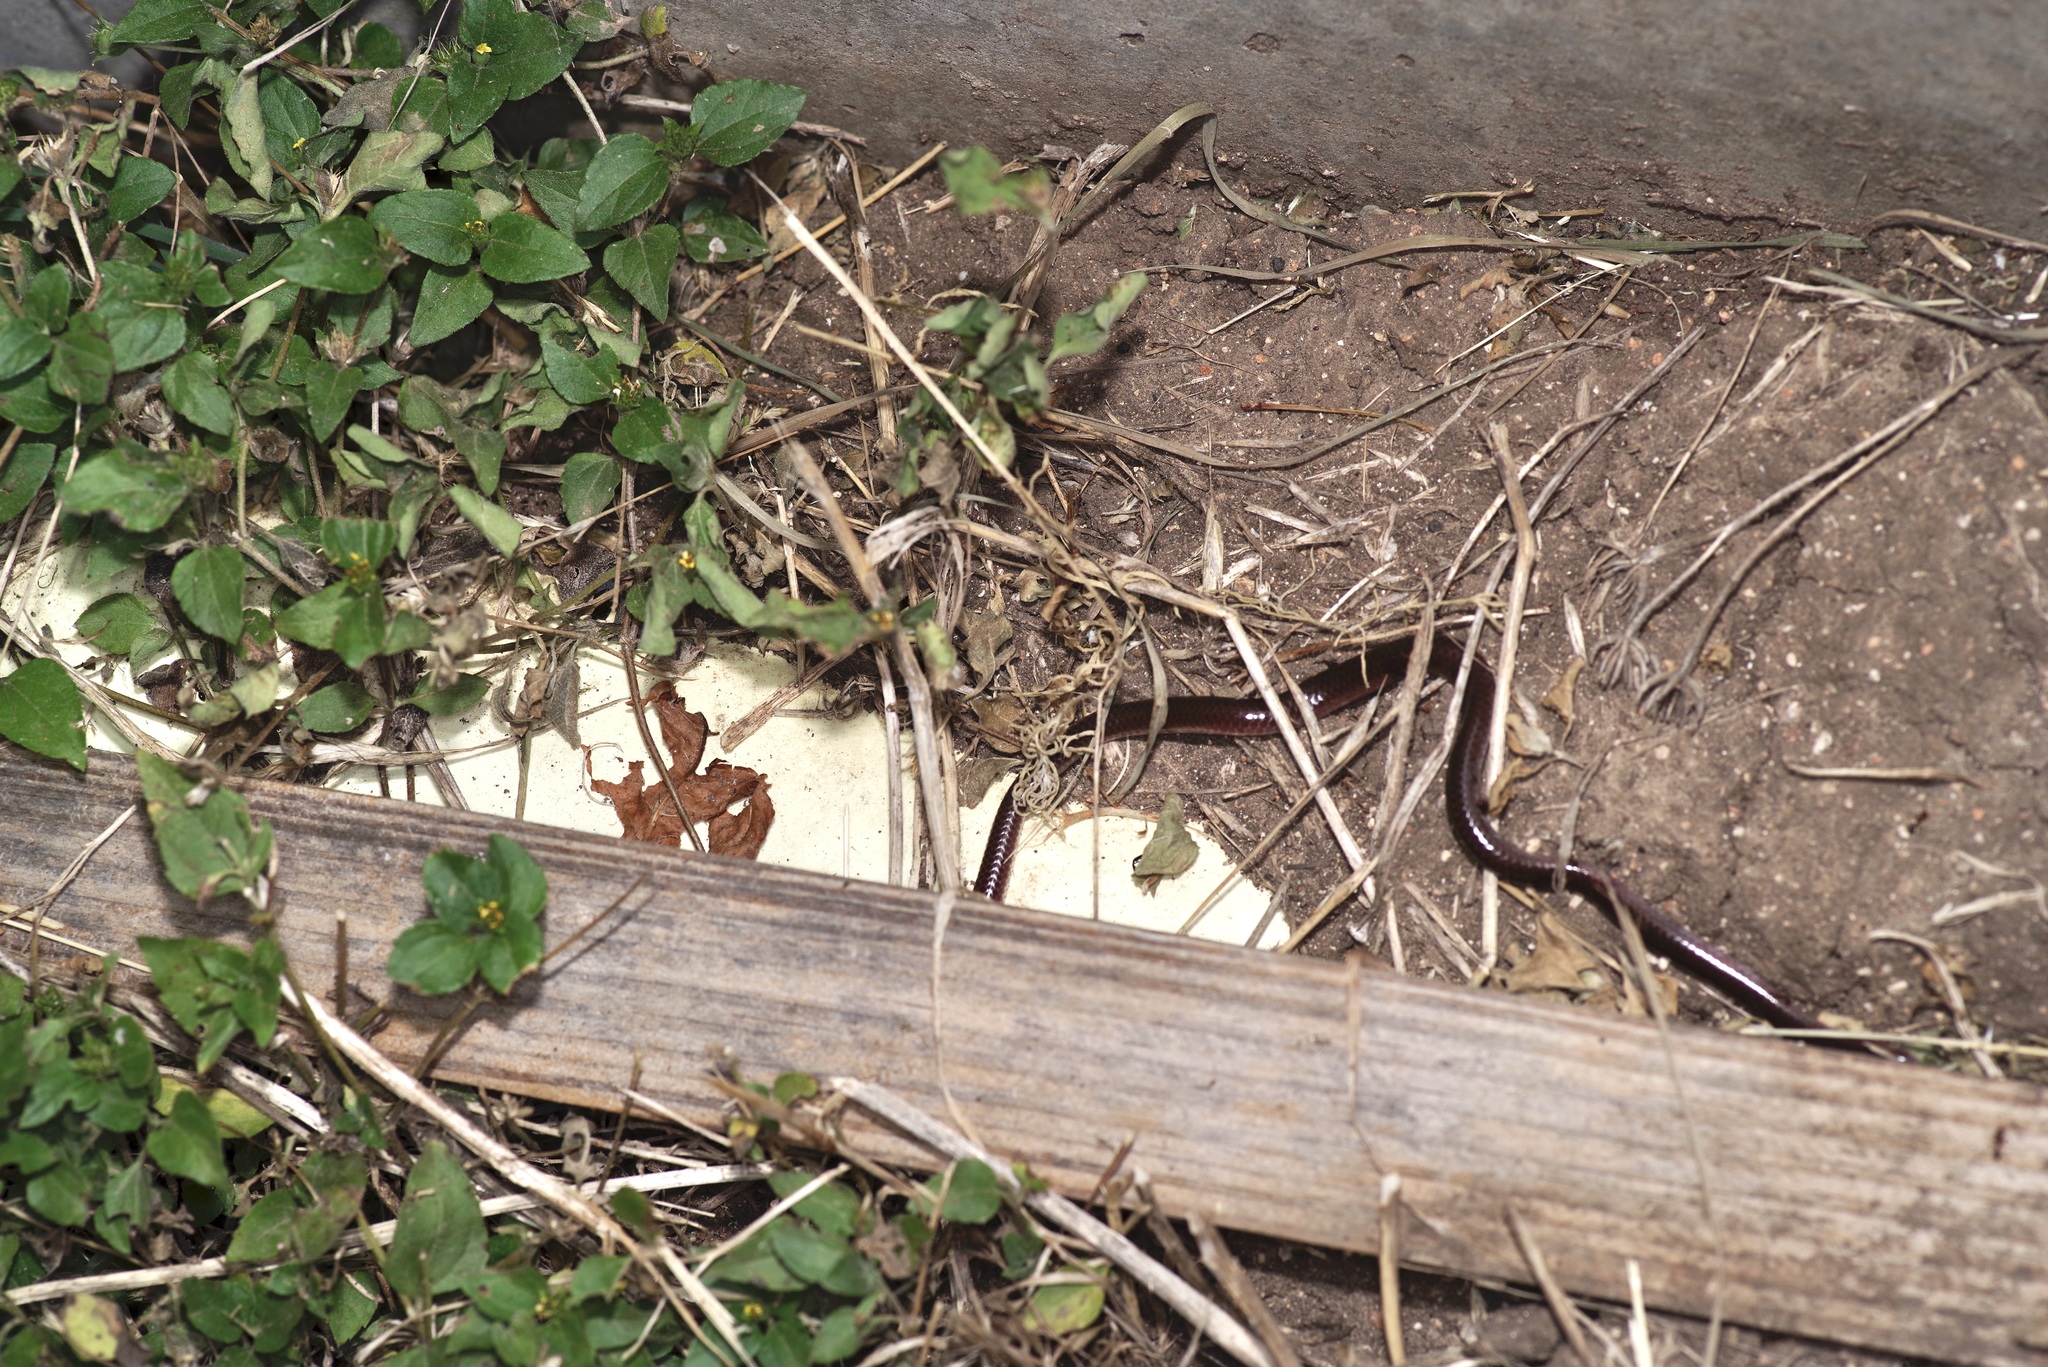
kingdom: Animalia
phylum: Chordata
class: Squamata
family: Leptotyphlopidae
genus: Rena
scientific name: Rena dulcis
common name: Texas blind snake
